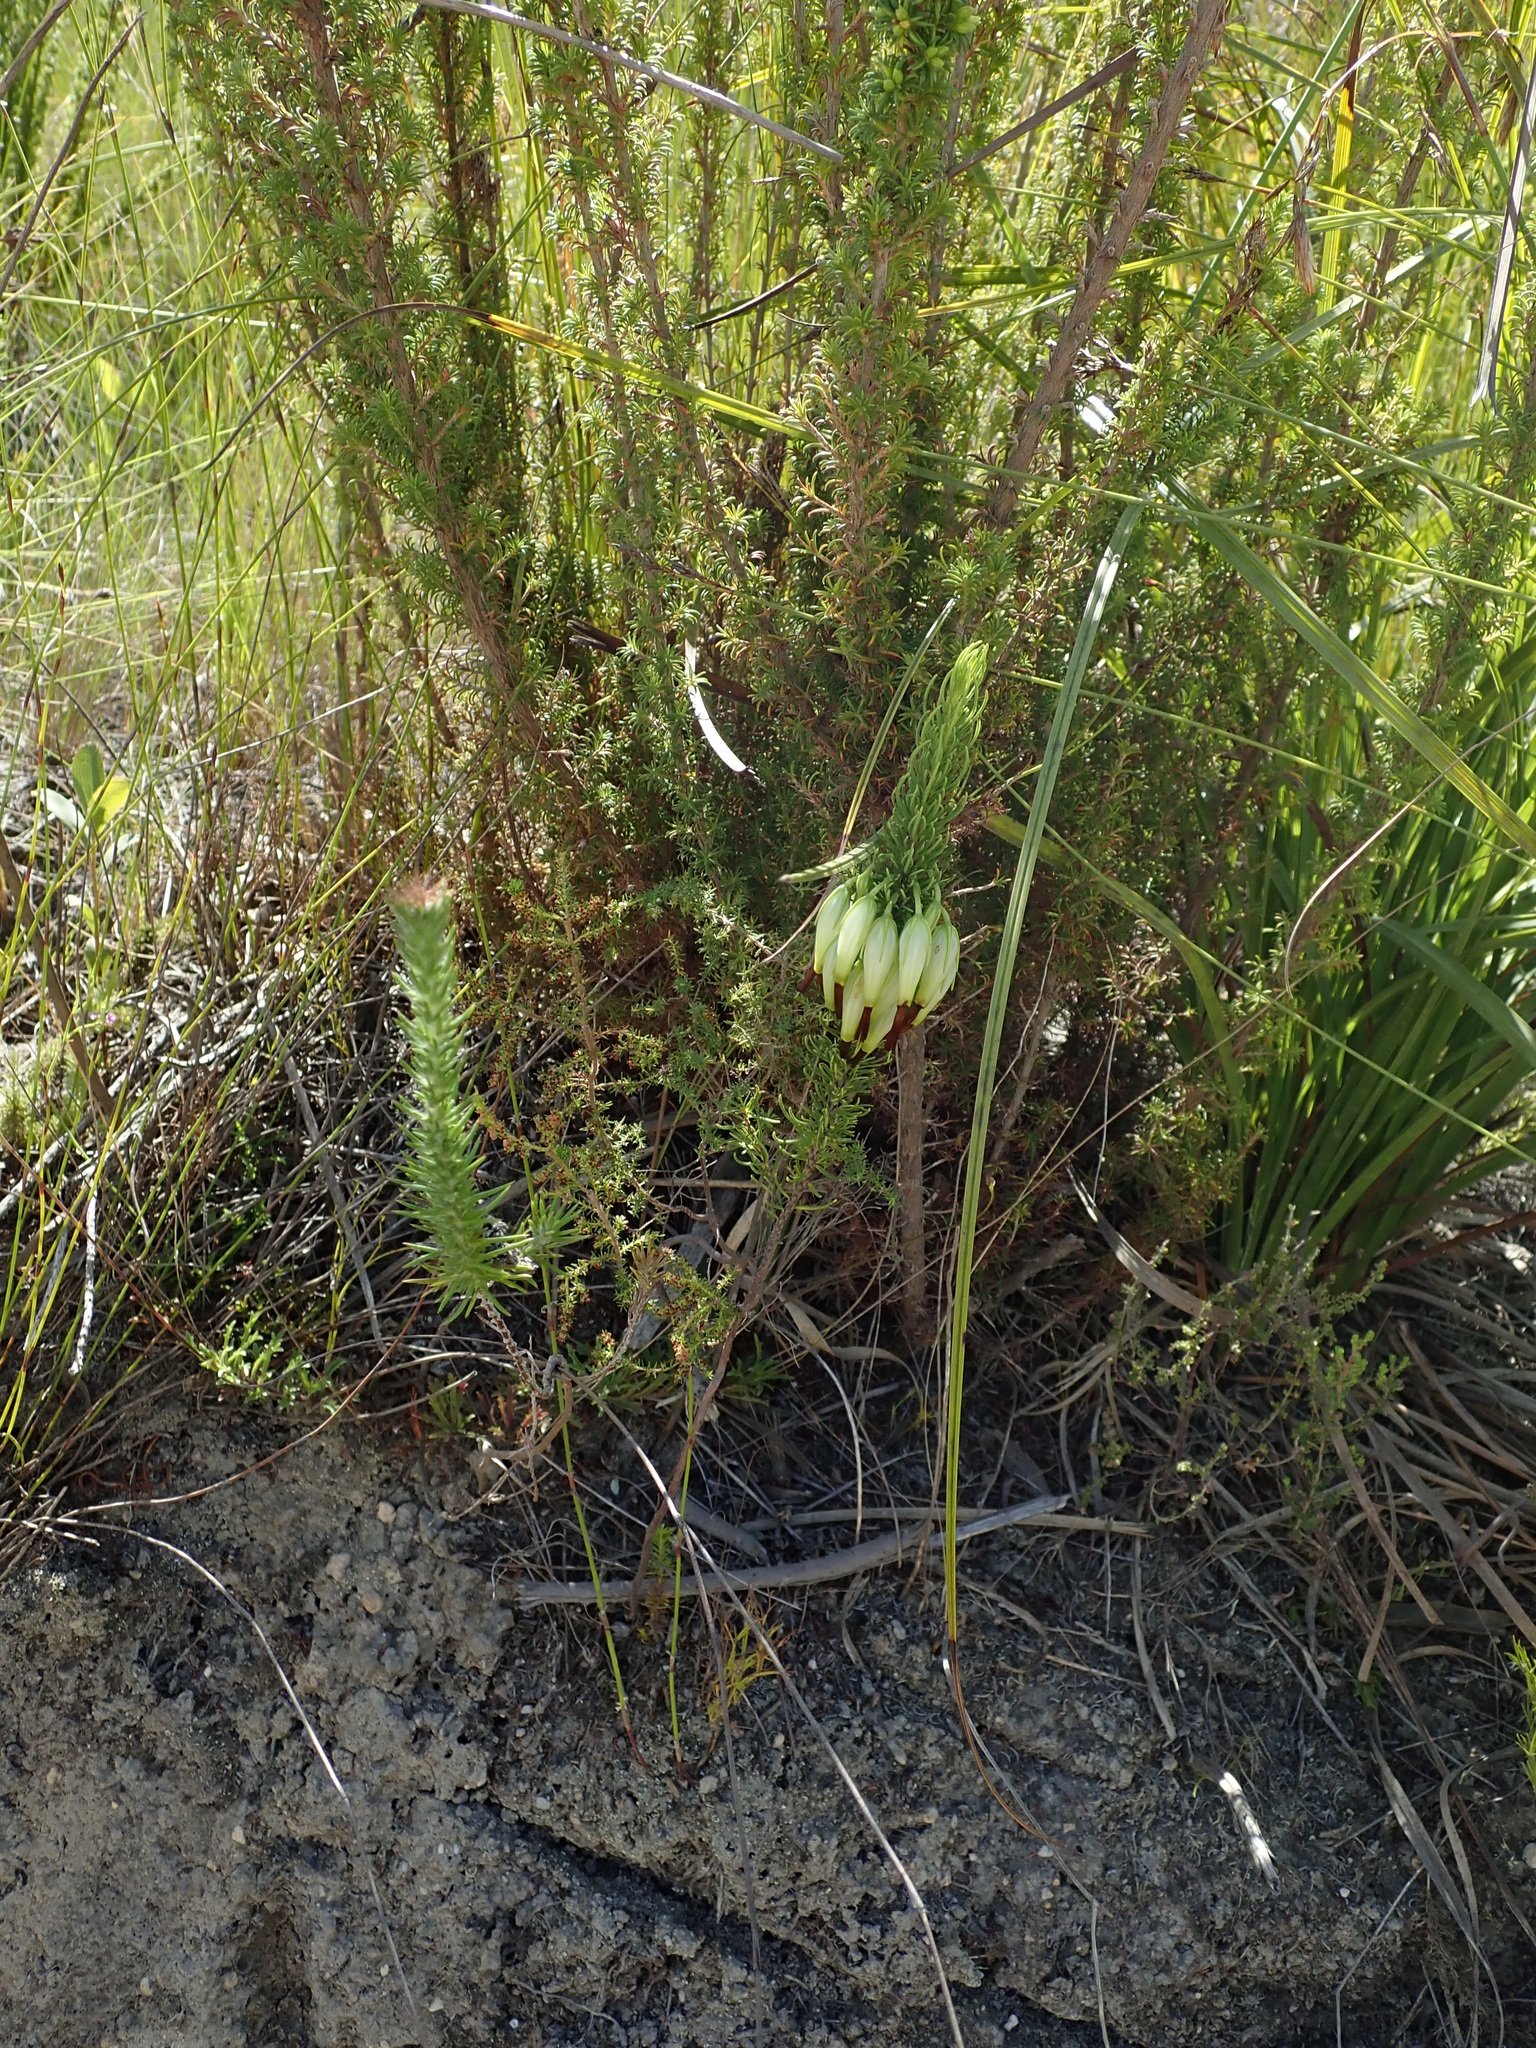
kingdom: Plantae
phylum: Tracheophyta
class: Magnoliopsida
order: Ericales
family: Ericaceae
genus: Erica
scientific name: Erica plukenetii
